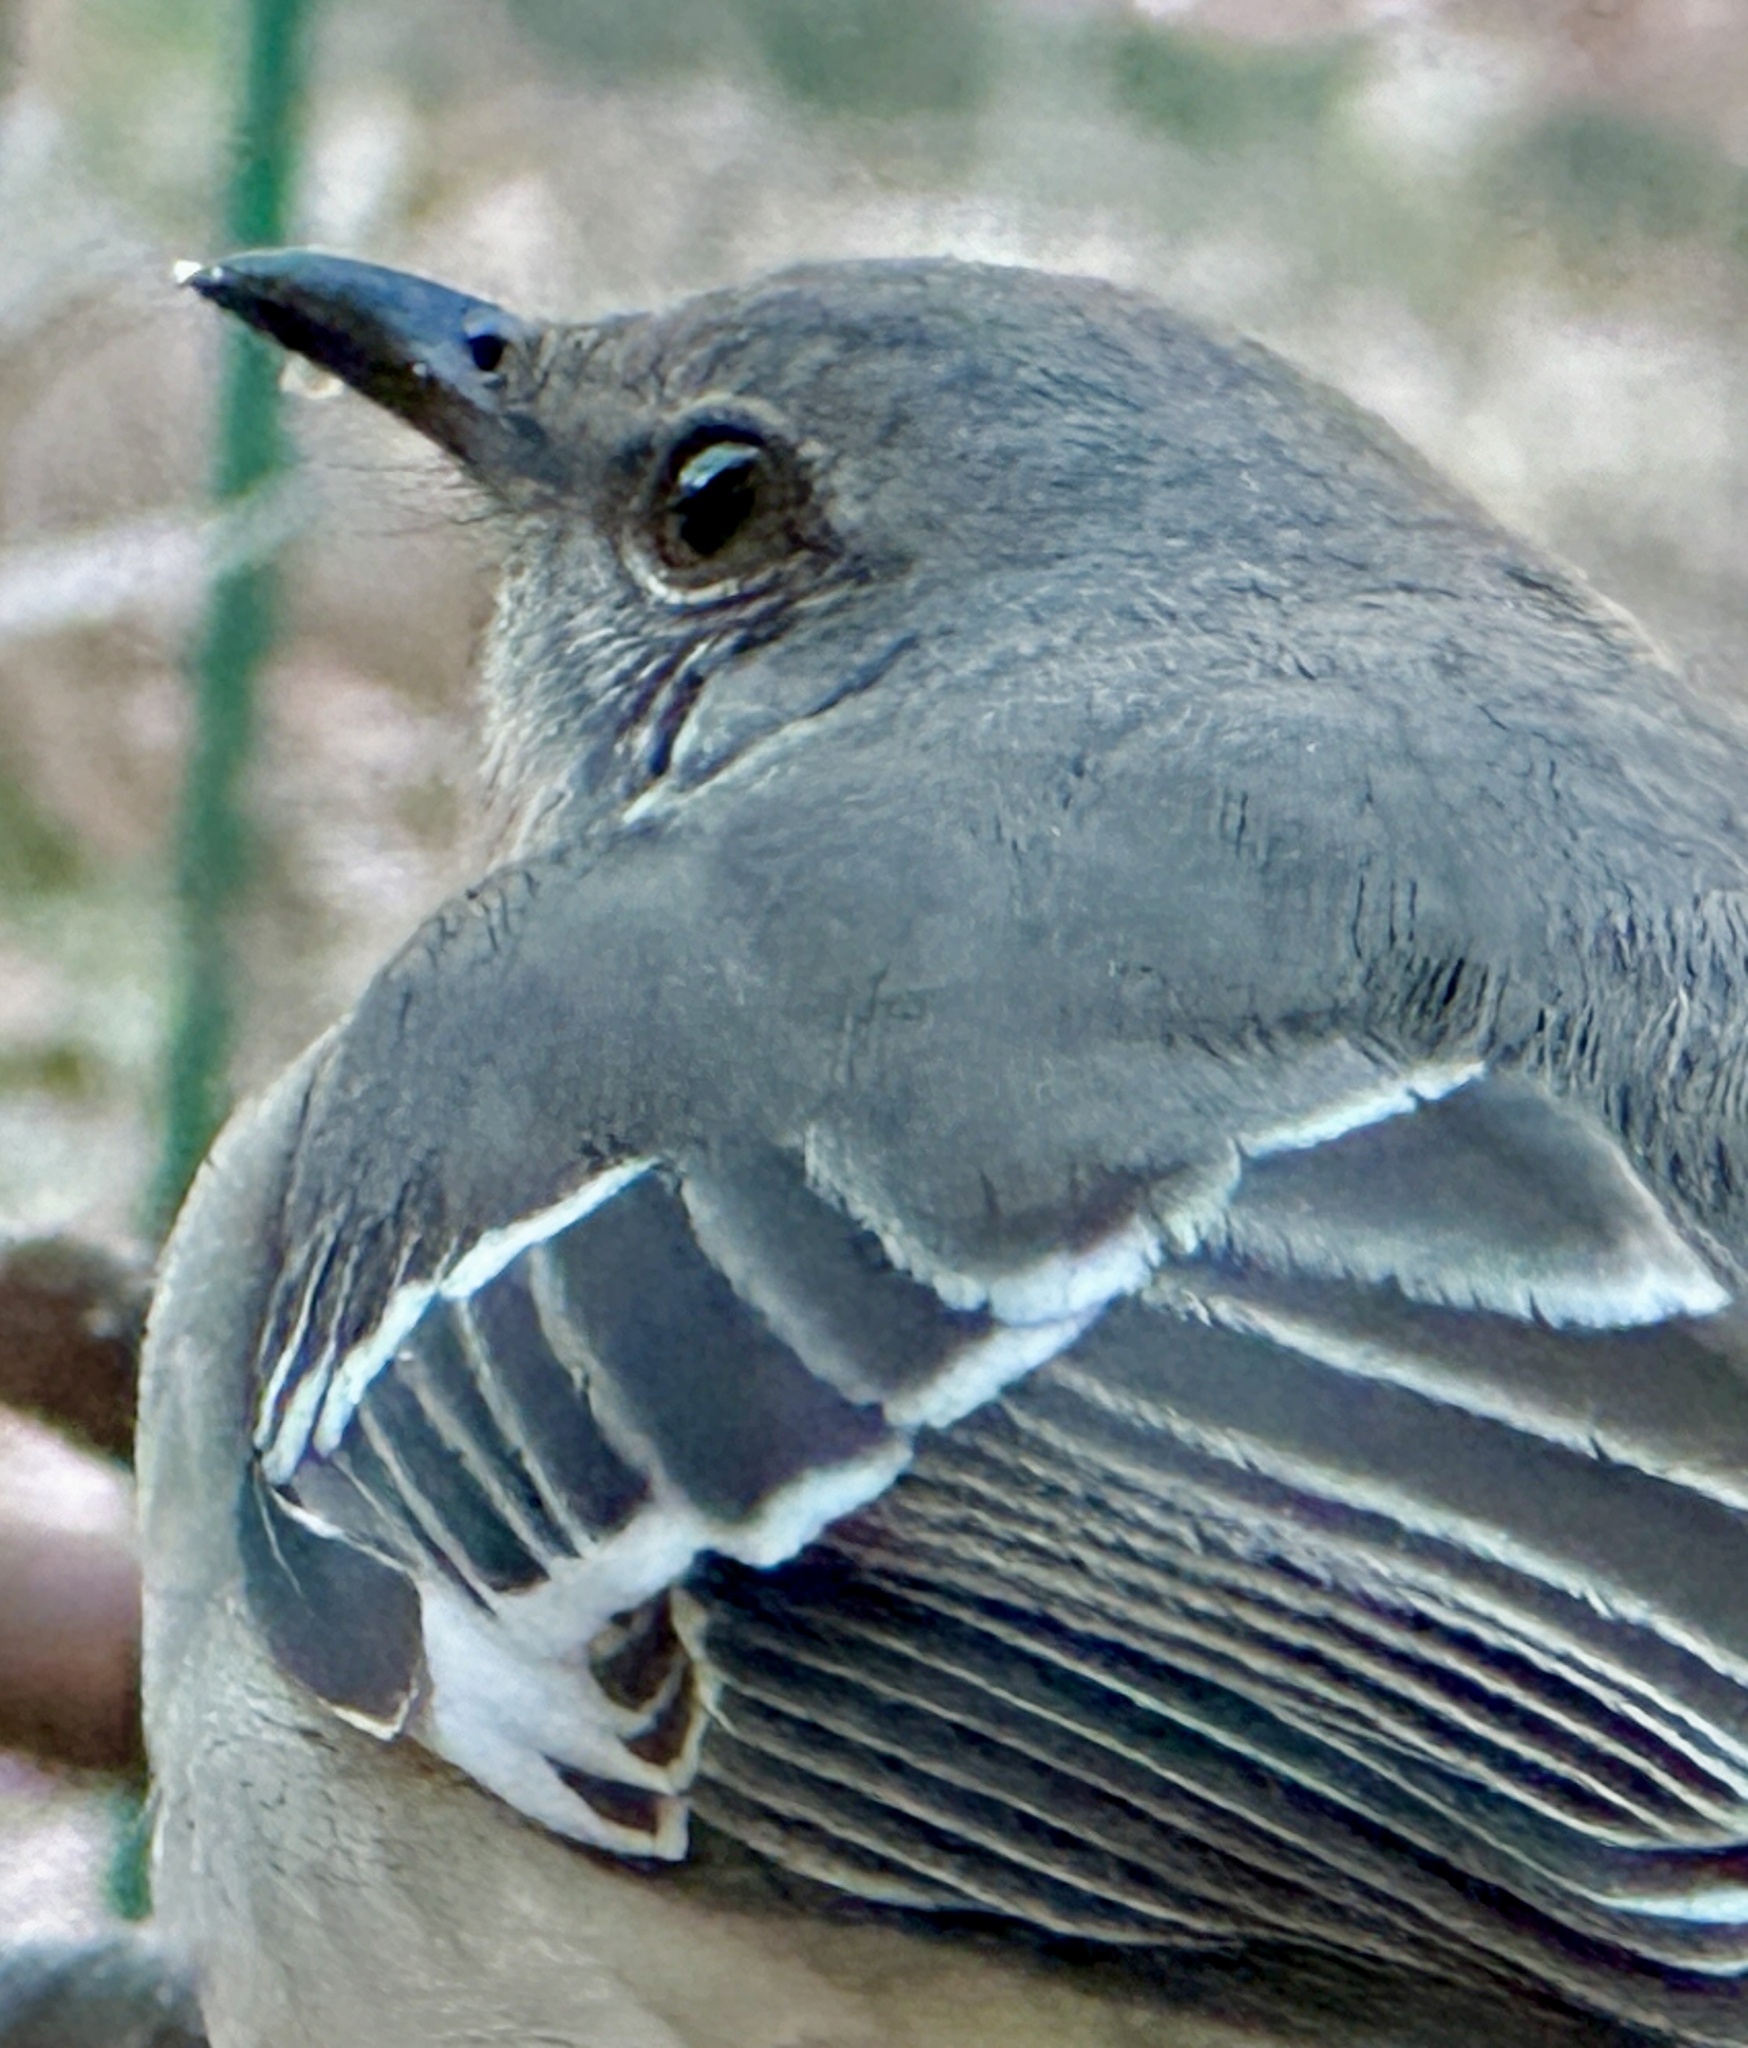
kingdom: Animalia
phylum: Chordata
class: Aves
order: Passeriformes
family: Mimidae
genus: Mimus
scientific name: Mimus polyglottos
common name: Northern mockingbird
